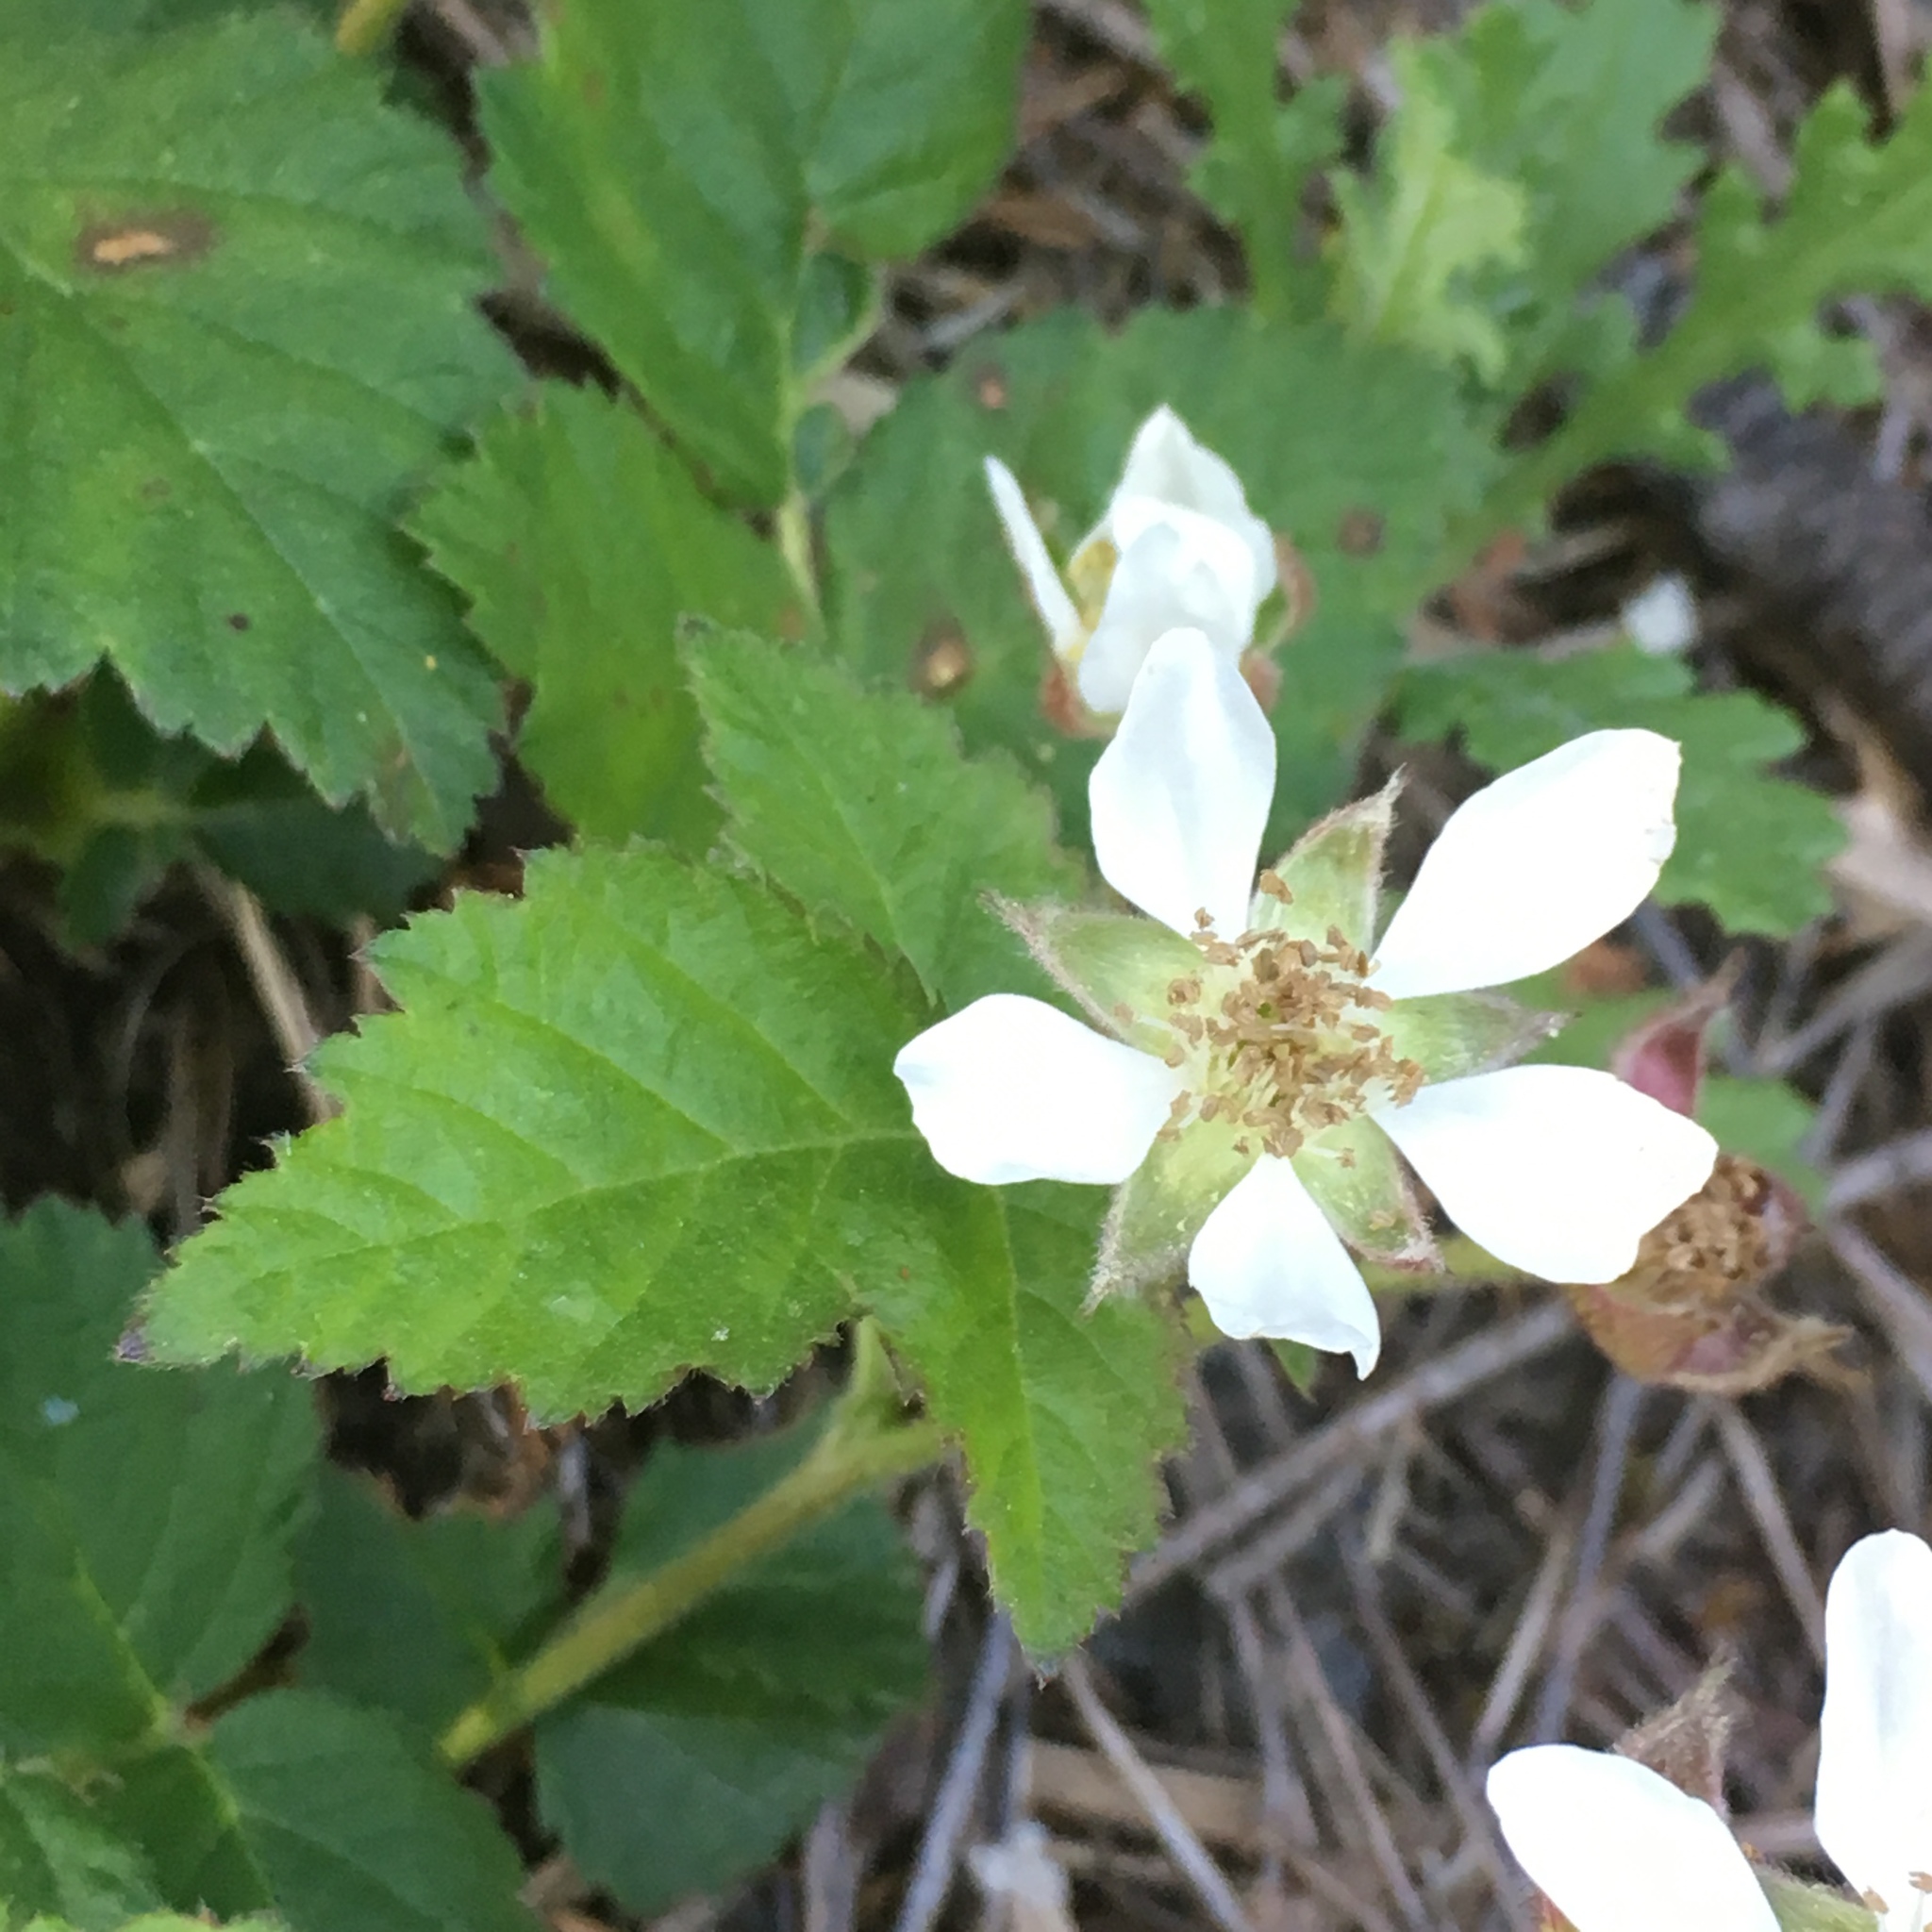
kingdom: Plantae
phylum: Tracheophyta
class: Magnoliopsida
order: Rosales
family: Rosaceae
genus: Rubus
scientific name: Rubus ursinus
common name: Pacific blackberry
